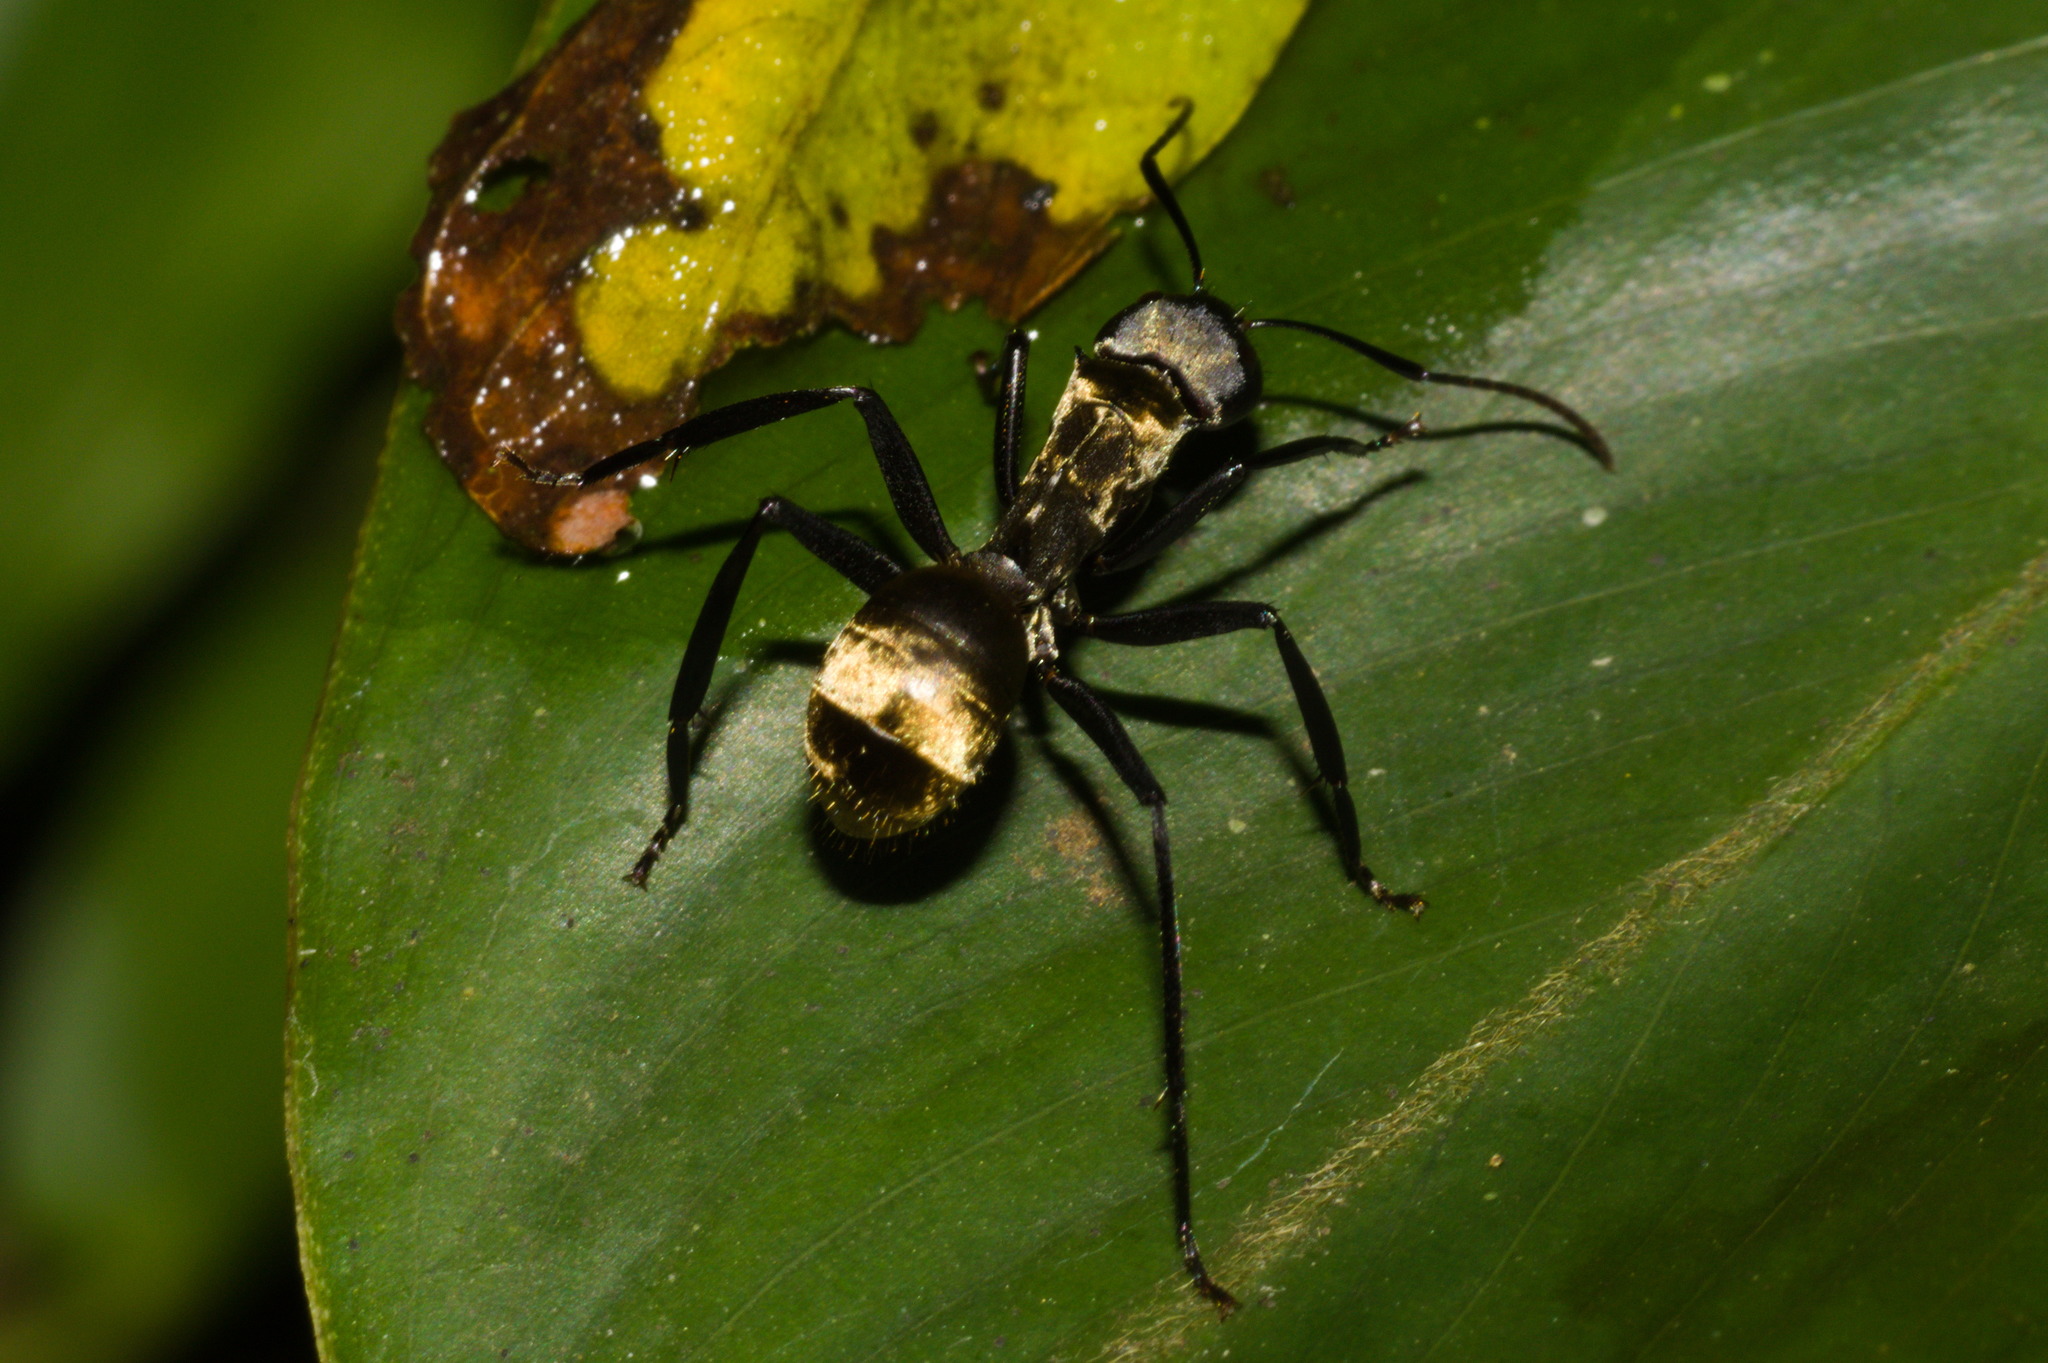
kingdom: Animalia
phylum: Arthropoda
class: Insecta
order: Hymenoptera
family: Formicidae
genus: Camponotus
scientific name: Camponotus sericeiventris
